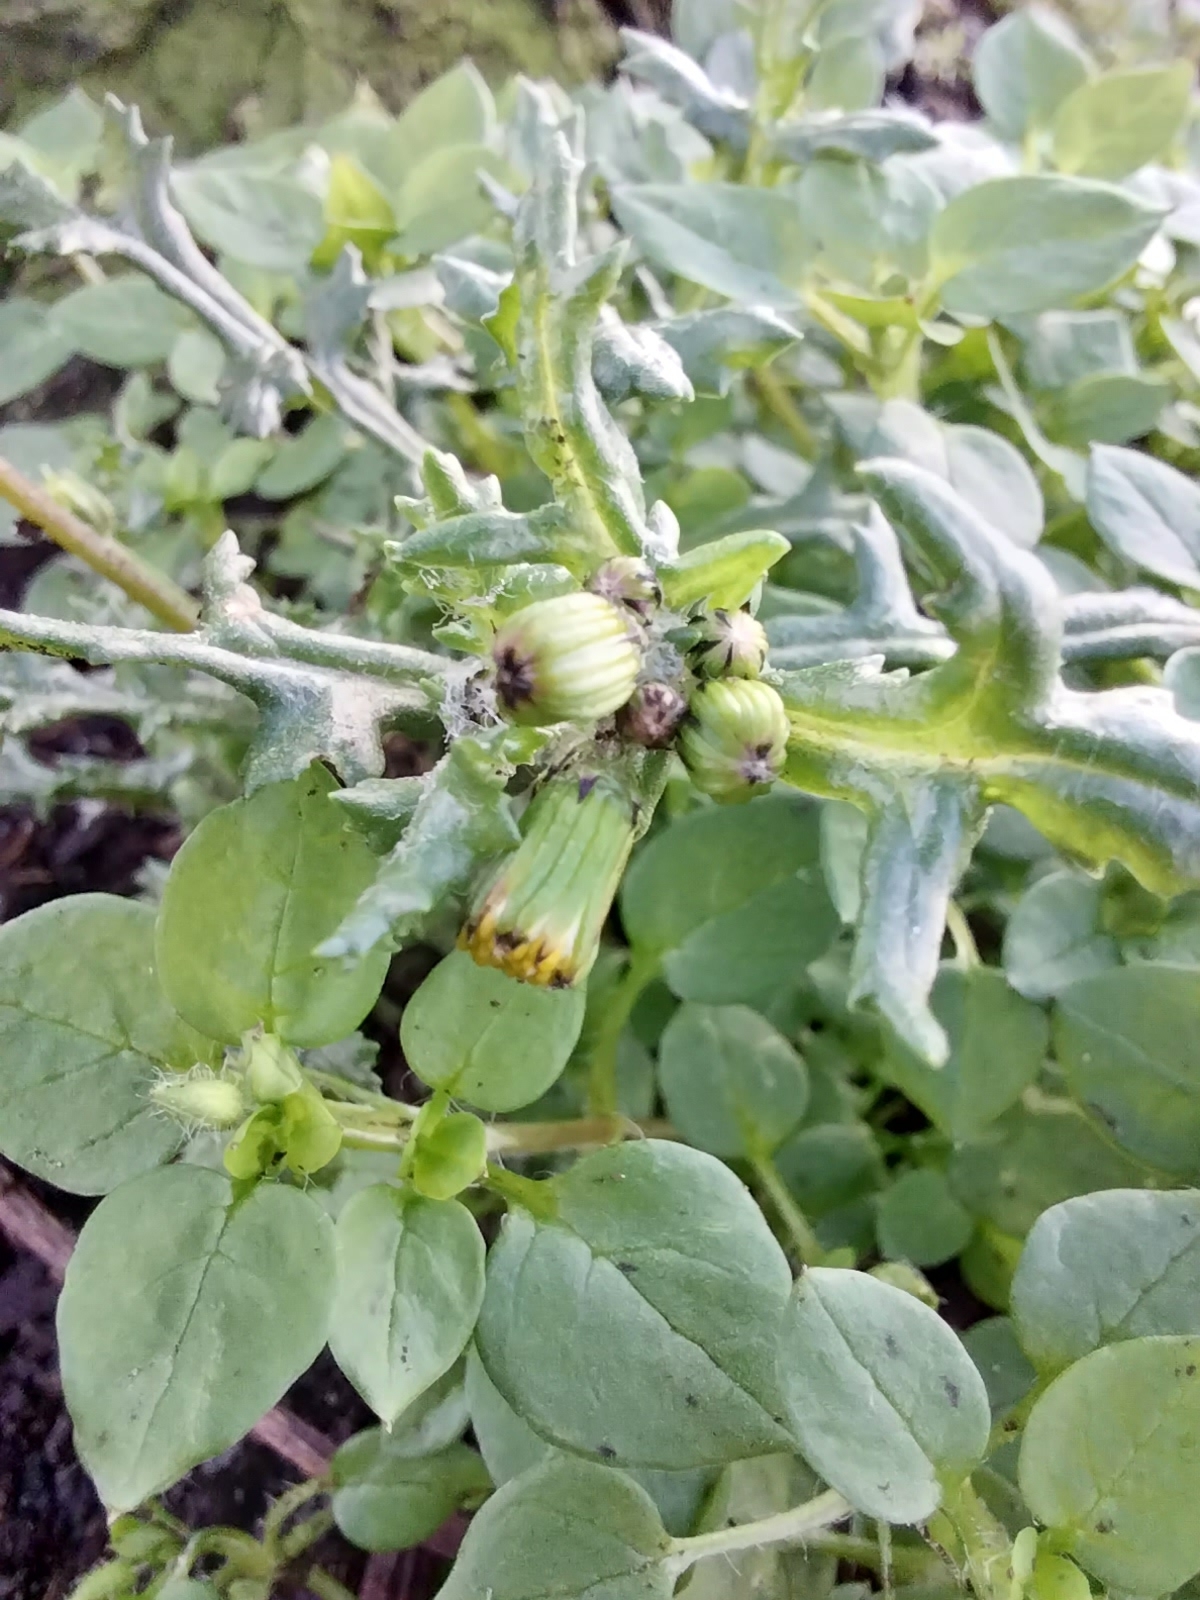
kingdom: Plantae
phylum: Tracheophyta
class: Magnoliopsida
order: Asterales
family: Asteraceae
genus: Senecio
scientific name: Senecio vulgaris
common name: Old-man-in-the-spring
